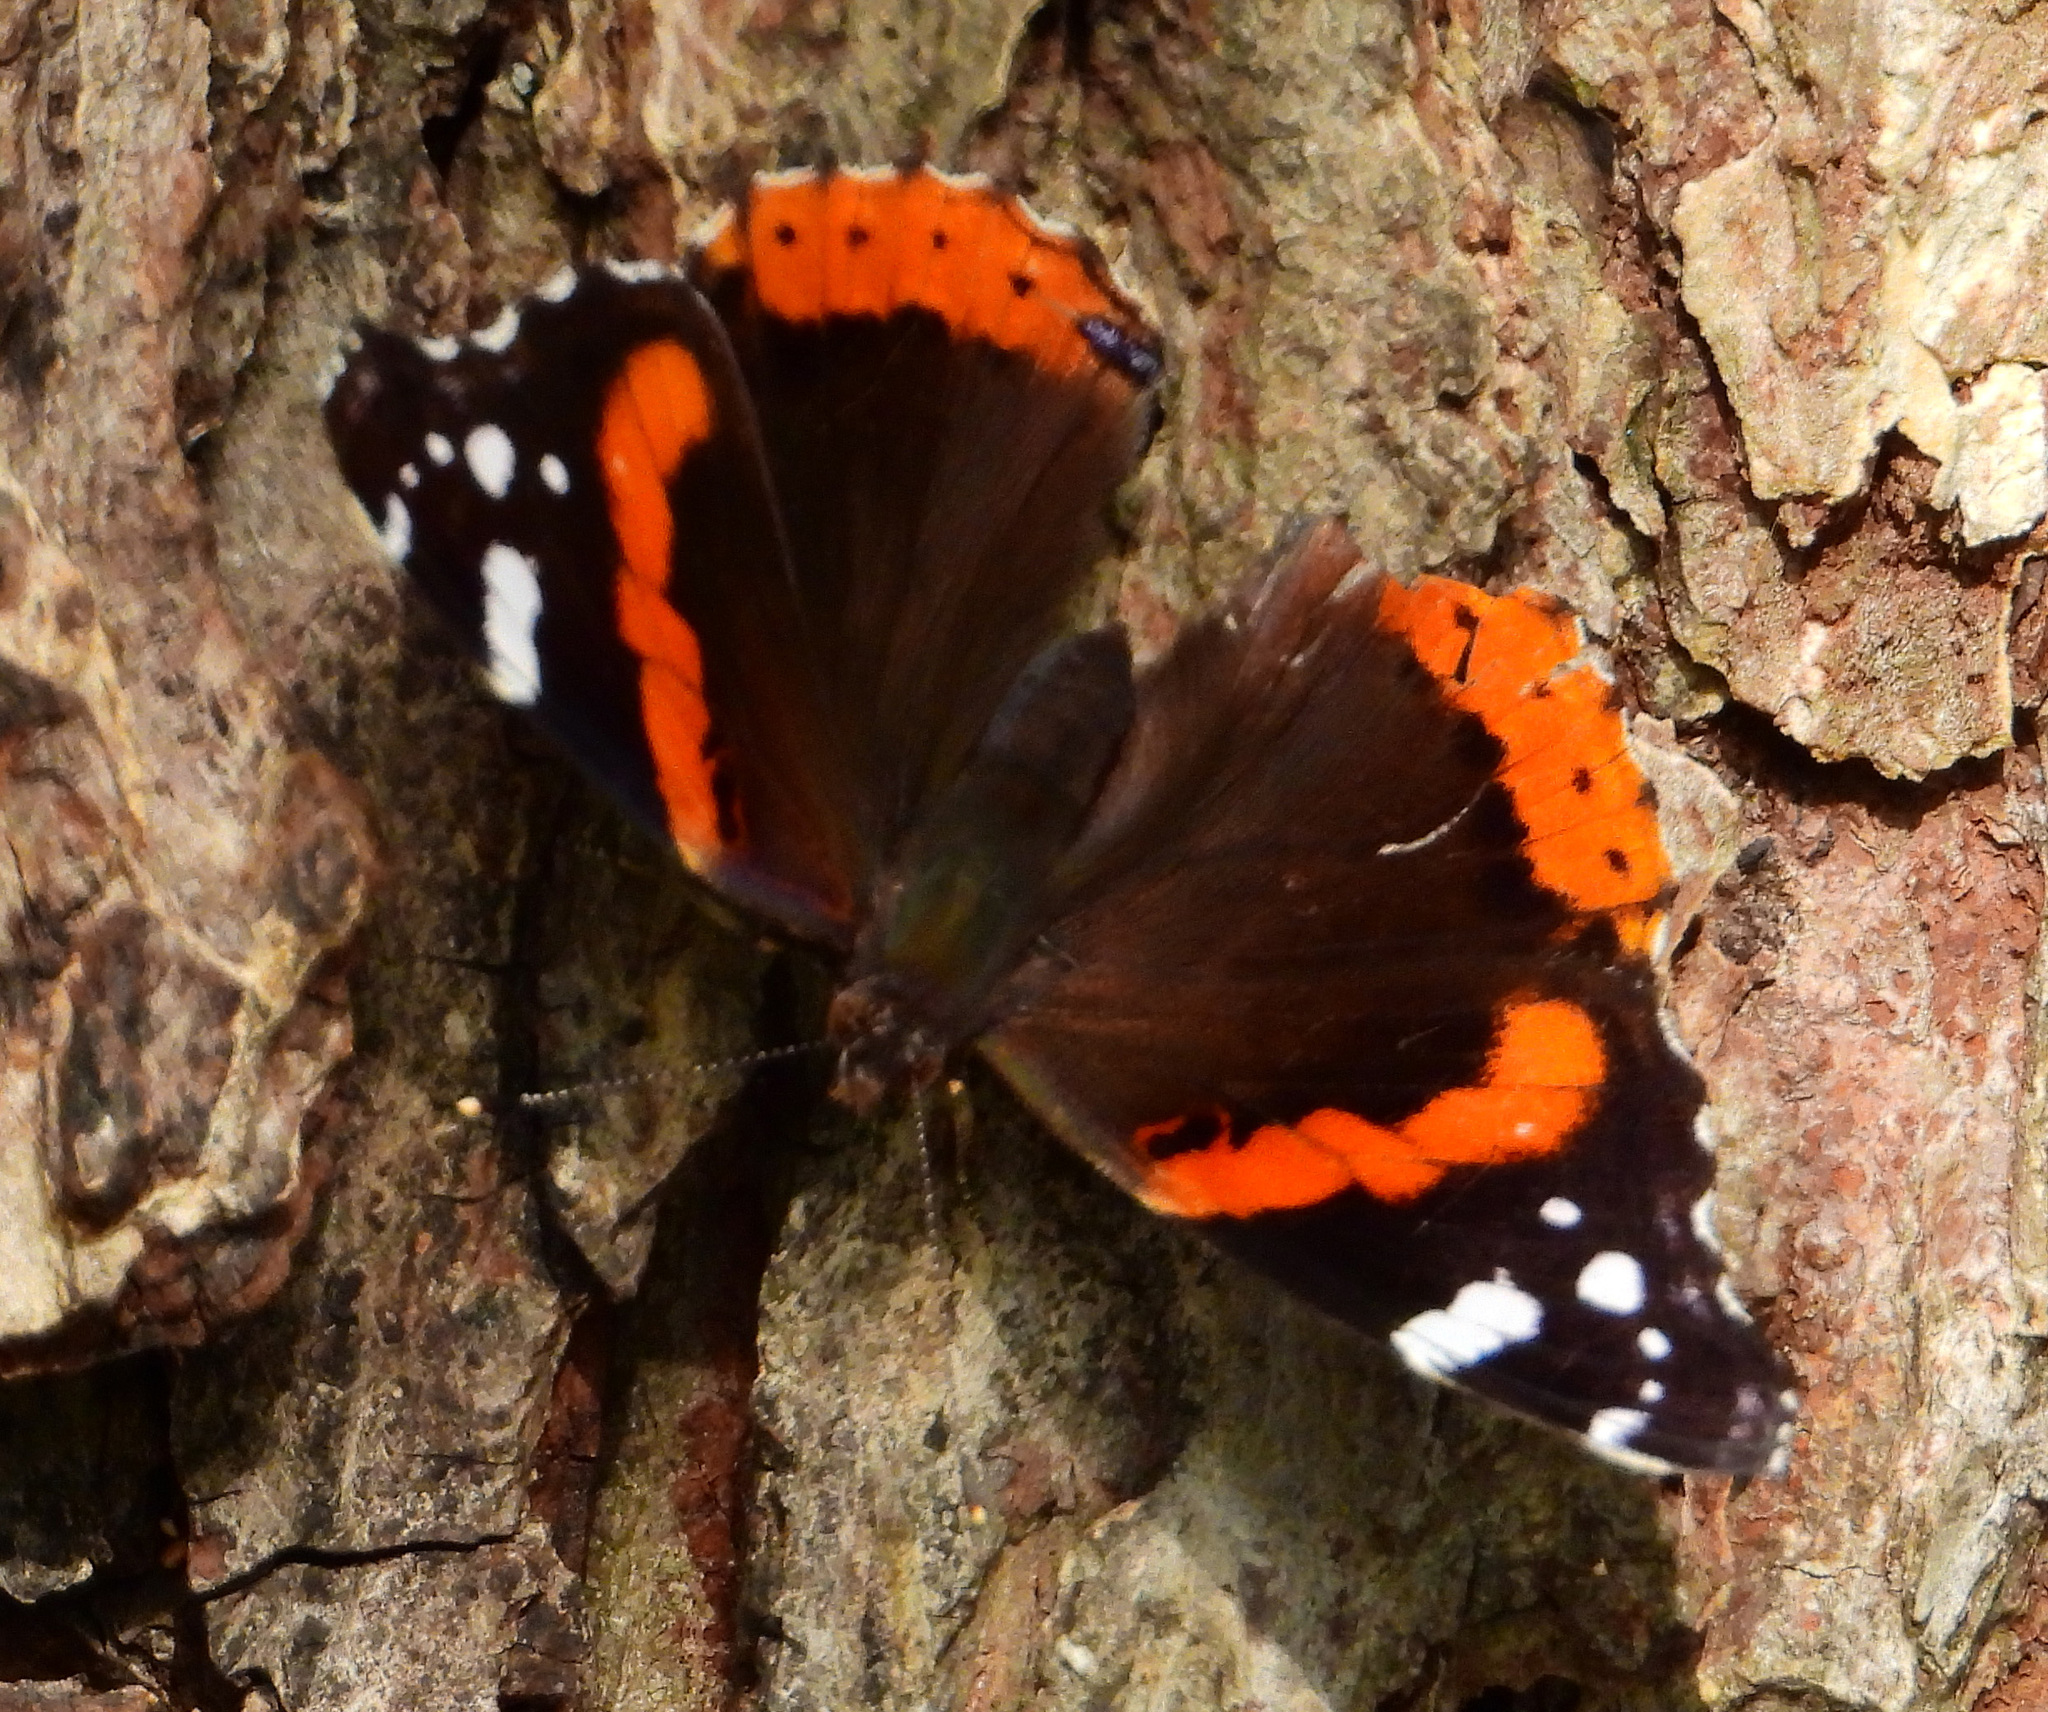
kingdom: Animalia
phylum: Arthropoda
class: Insecta
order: Lepidoptera
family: Nymphalidae
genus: Vanessa
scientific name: Vanessa atalanta
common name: Red admiral
